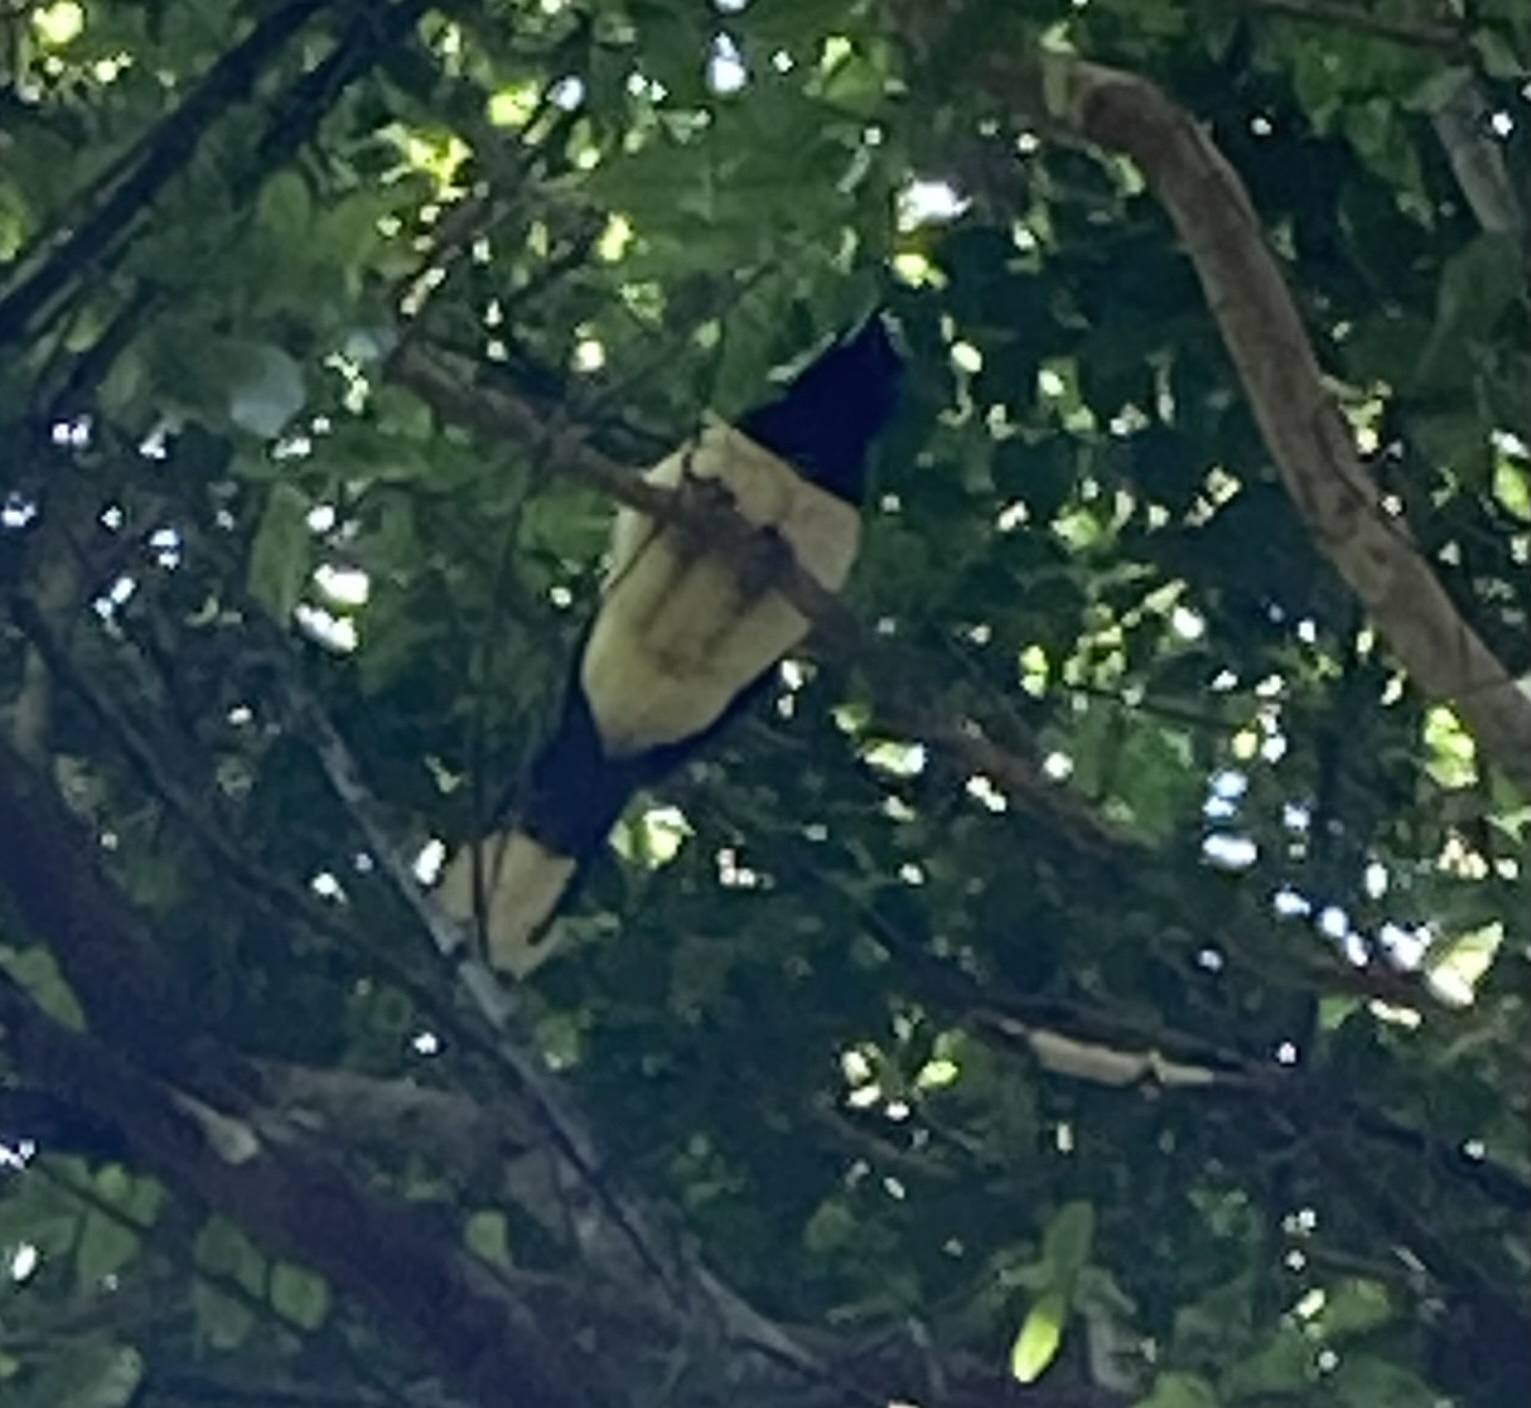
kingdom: Animalia
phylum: Chordata
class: Aves
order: Passeriformes
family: Corvidae
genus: Cyanocorax
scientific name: Cyanocorax chrysops
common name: Plush-crested jay
